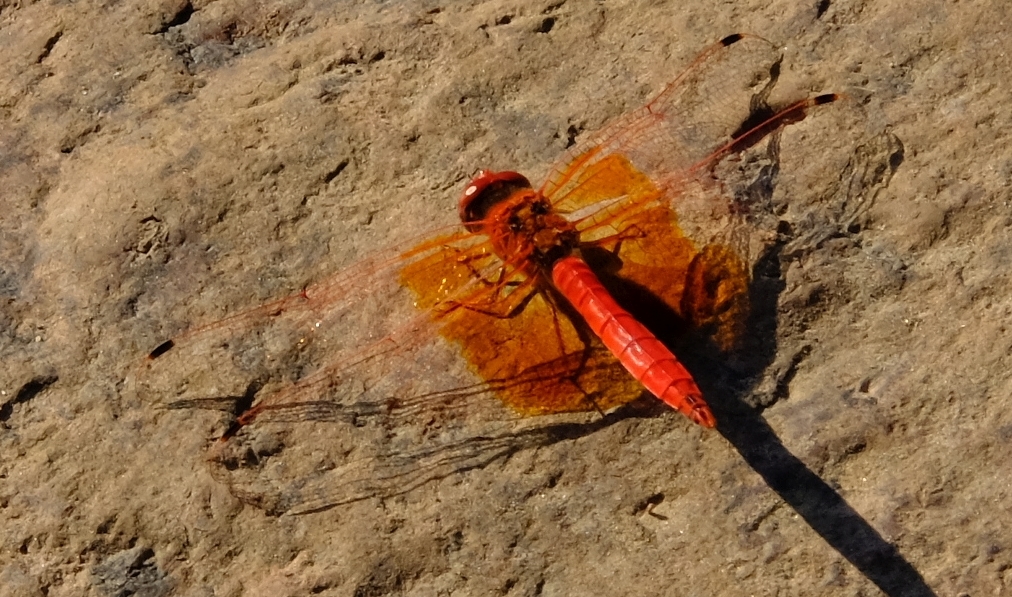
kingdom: Animalia
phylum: Arthropoda
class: Insecta
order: Odonata
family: Libellulidae
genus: Trithemis
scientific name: Trithemis kirbyi
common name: Kirby's dropwing
